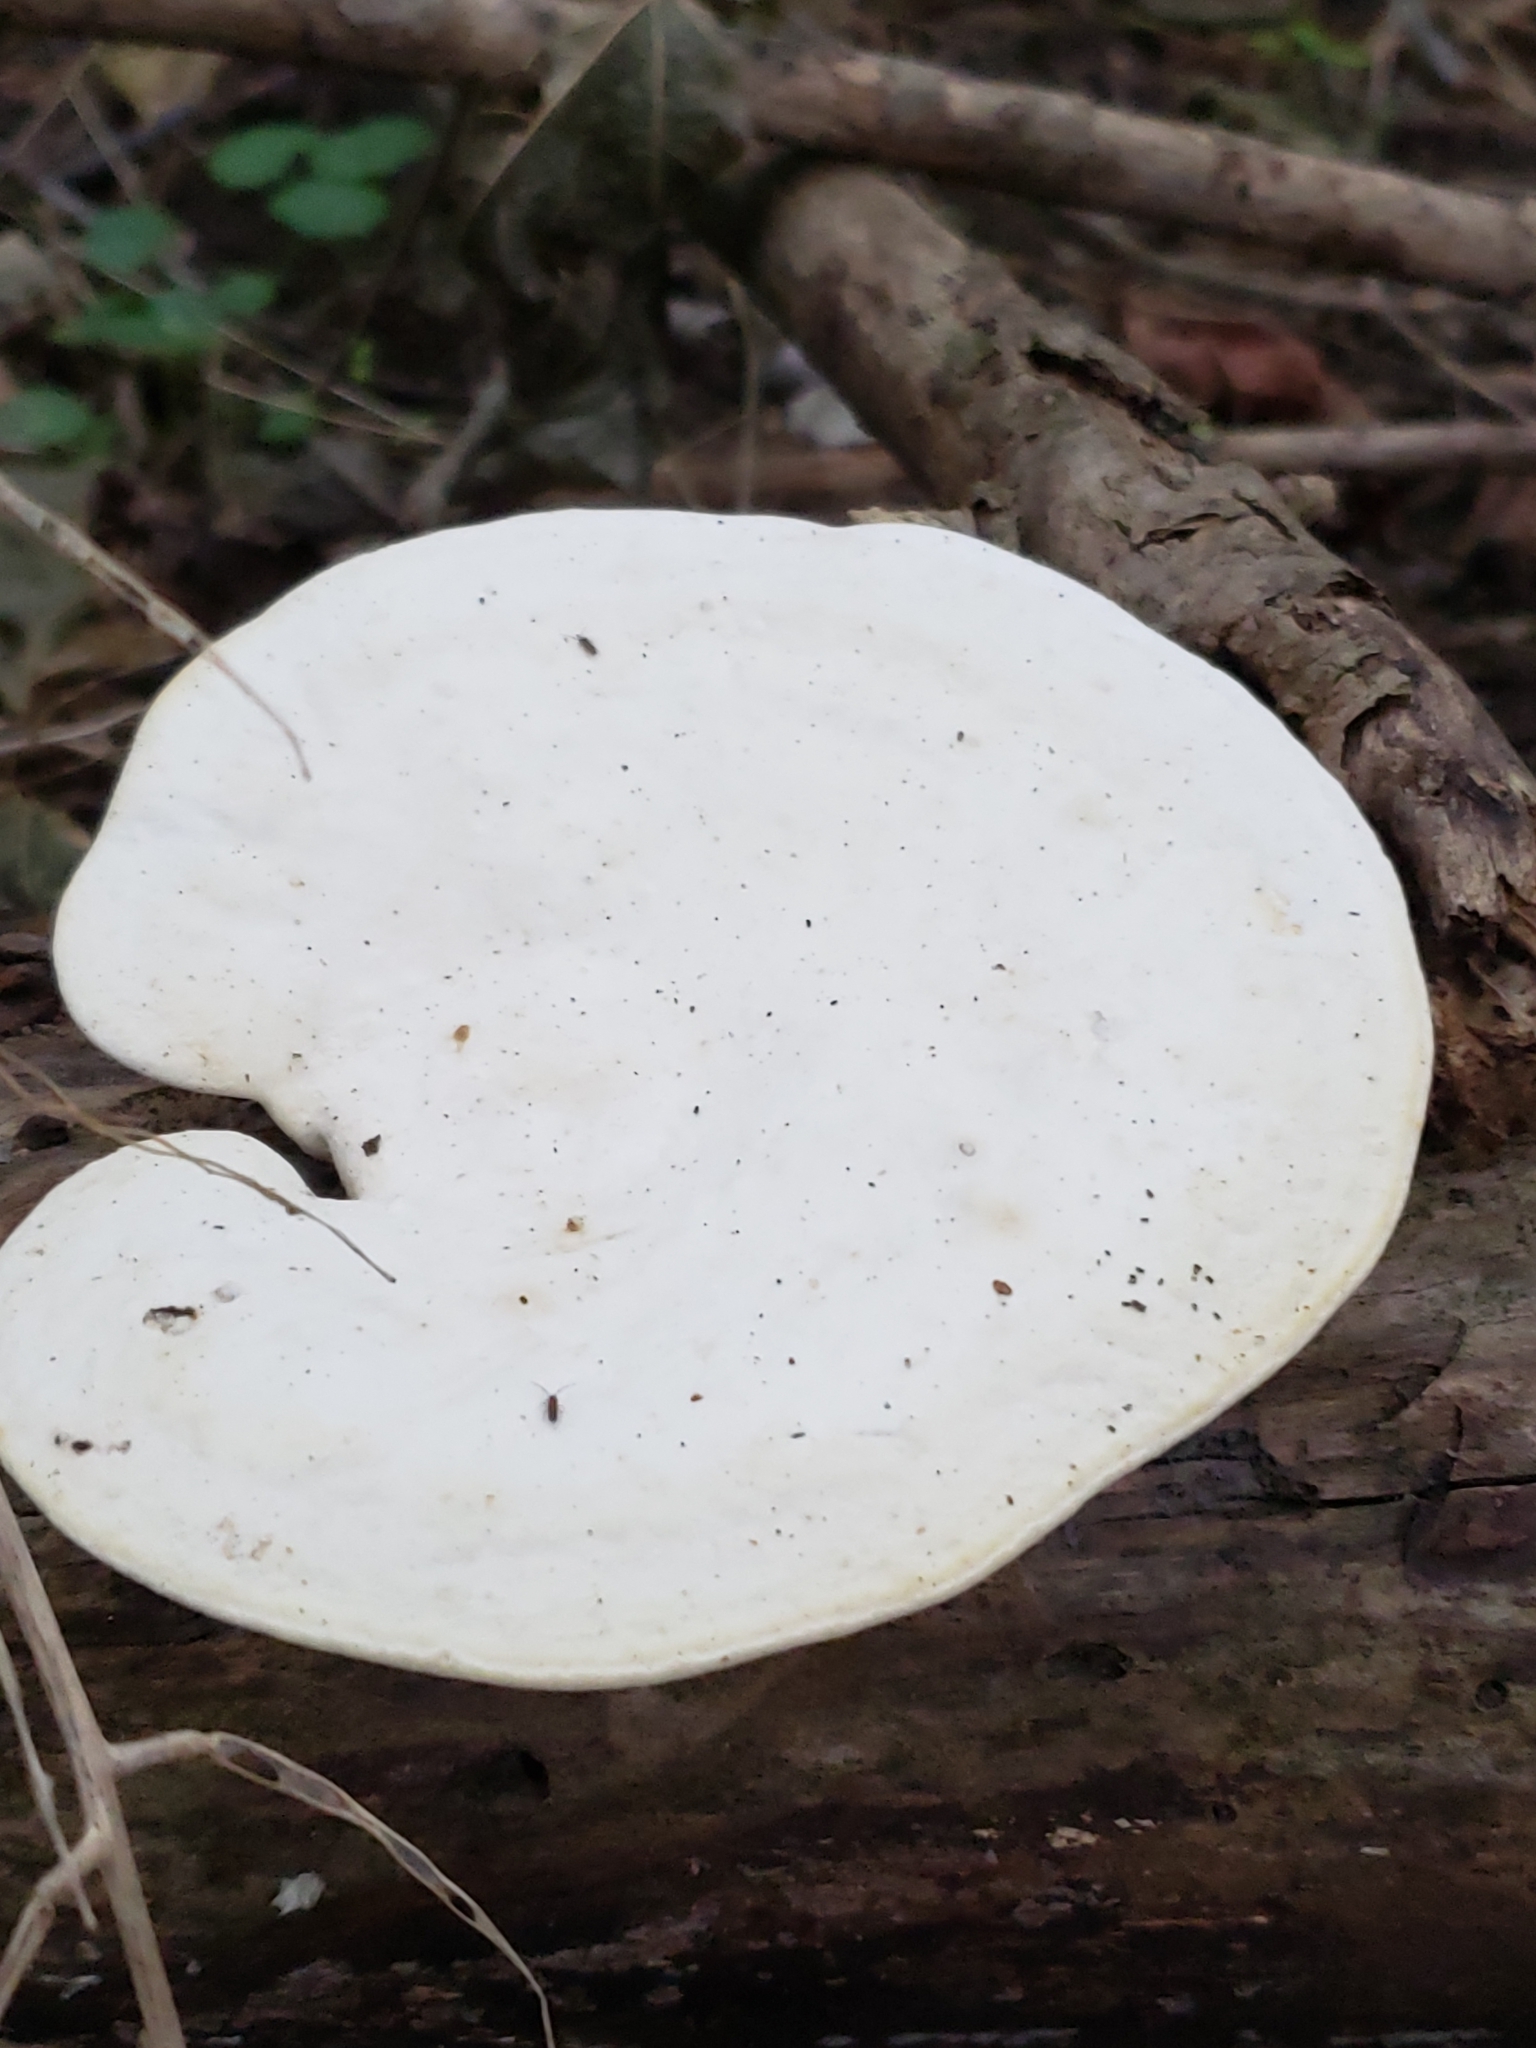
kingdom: Fungi
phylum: Basidiomycota
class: Agaricomycetes
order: Polyporales
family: Polyporaceae
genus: Trametes
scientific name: Trametes
